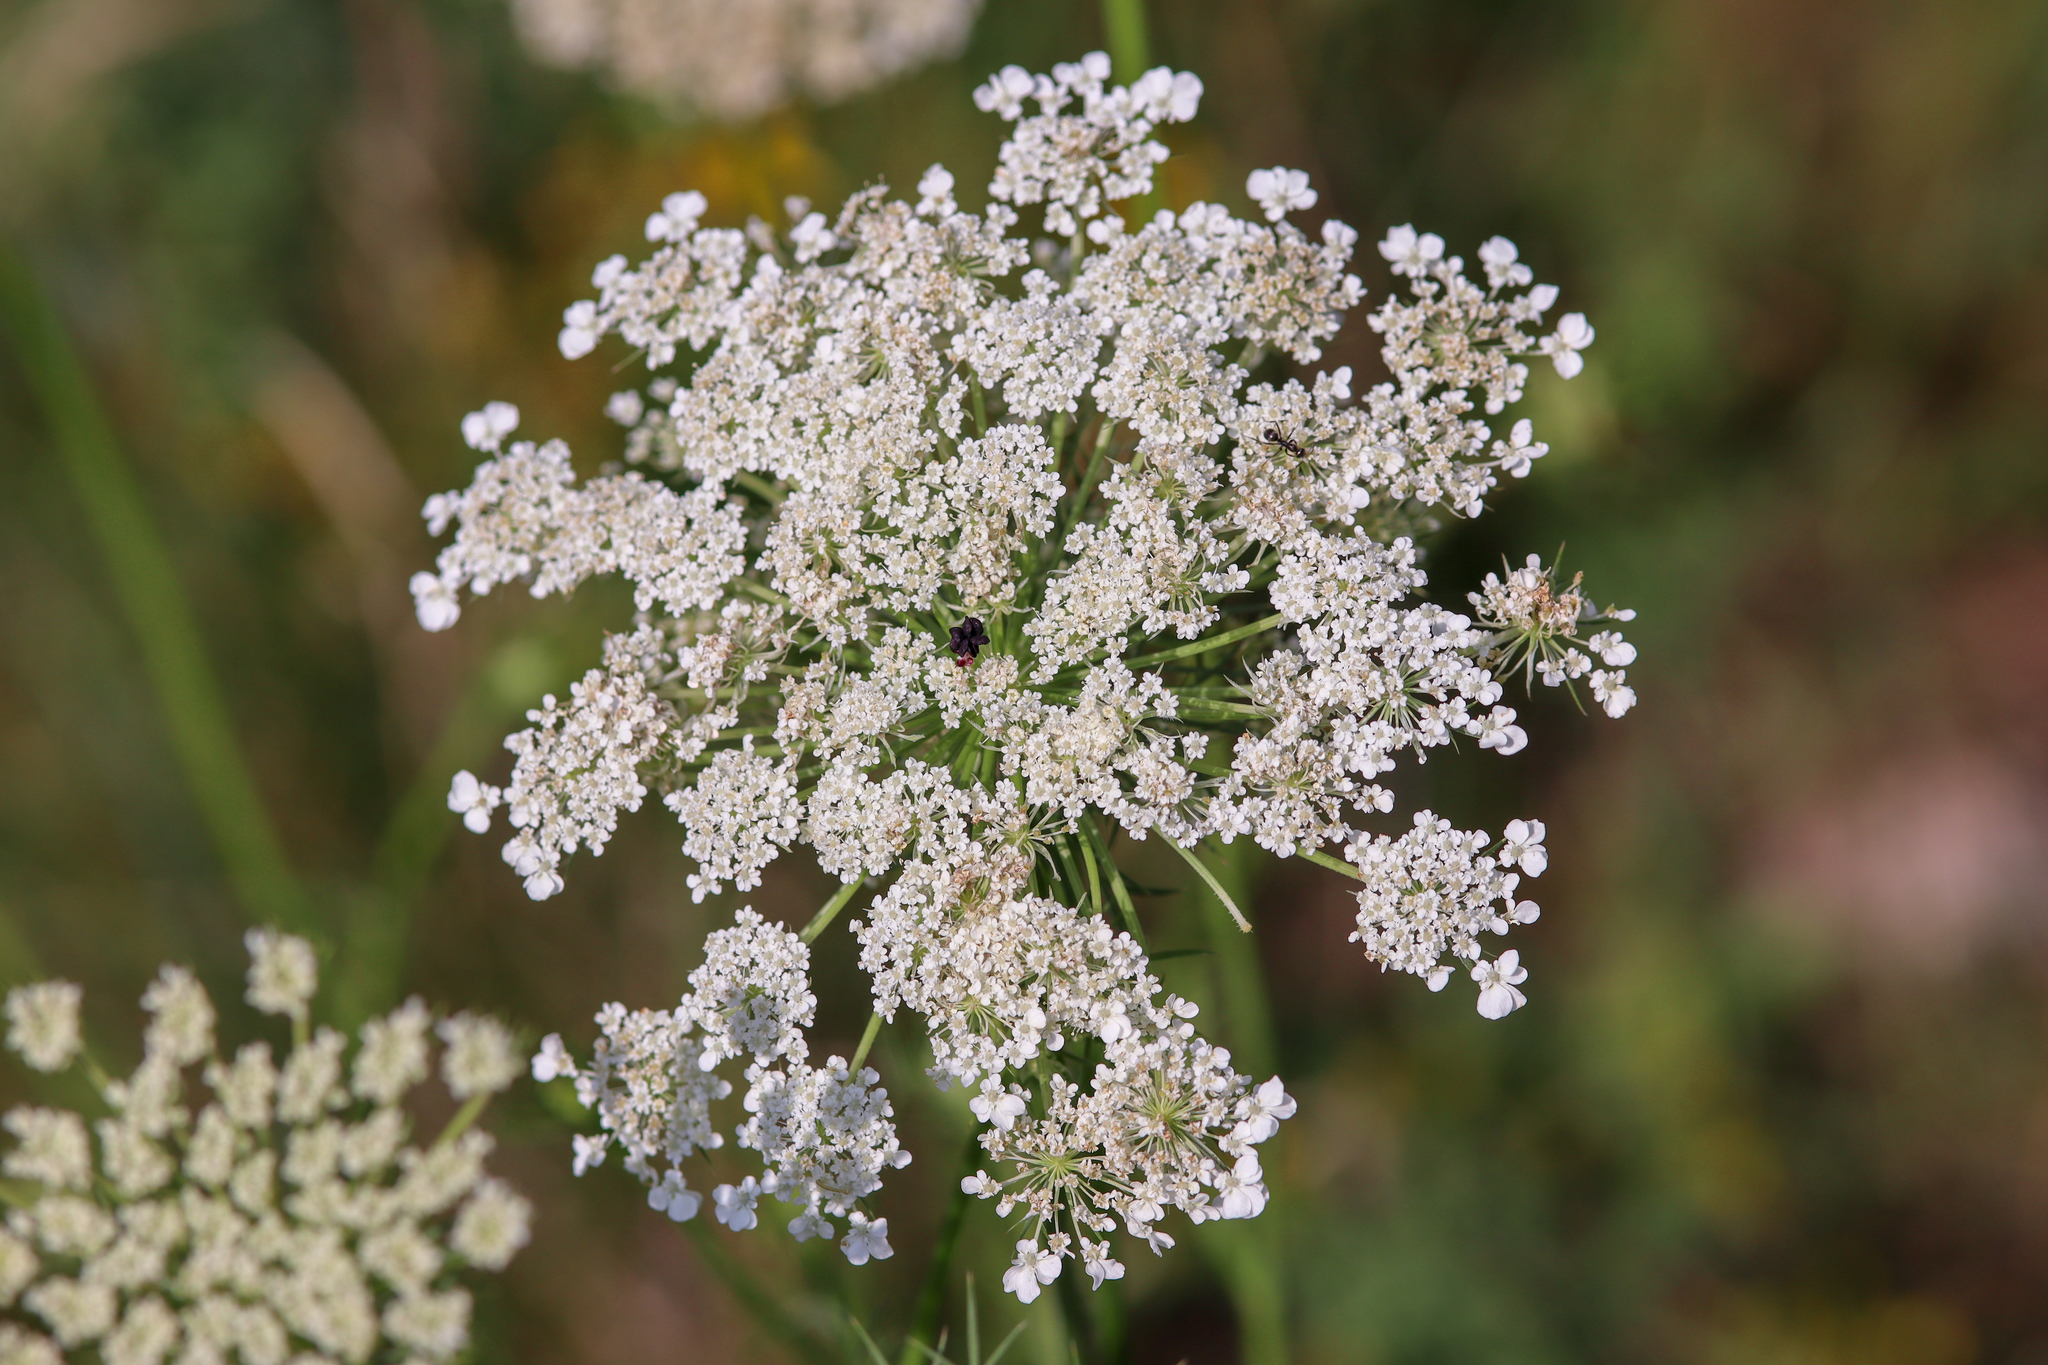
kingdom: Plantae
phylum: Tracheophyta
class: Magnoliopsida
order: Apiales
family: Apiaceae
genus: Daucus
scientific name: Daucus carota
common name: Wild carrot
